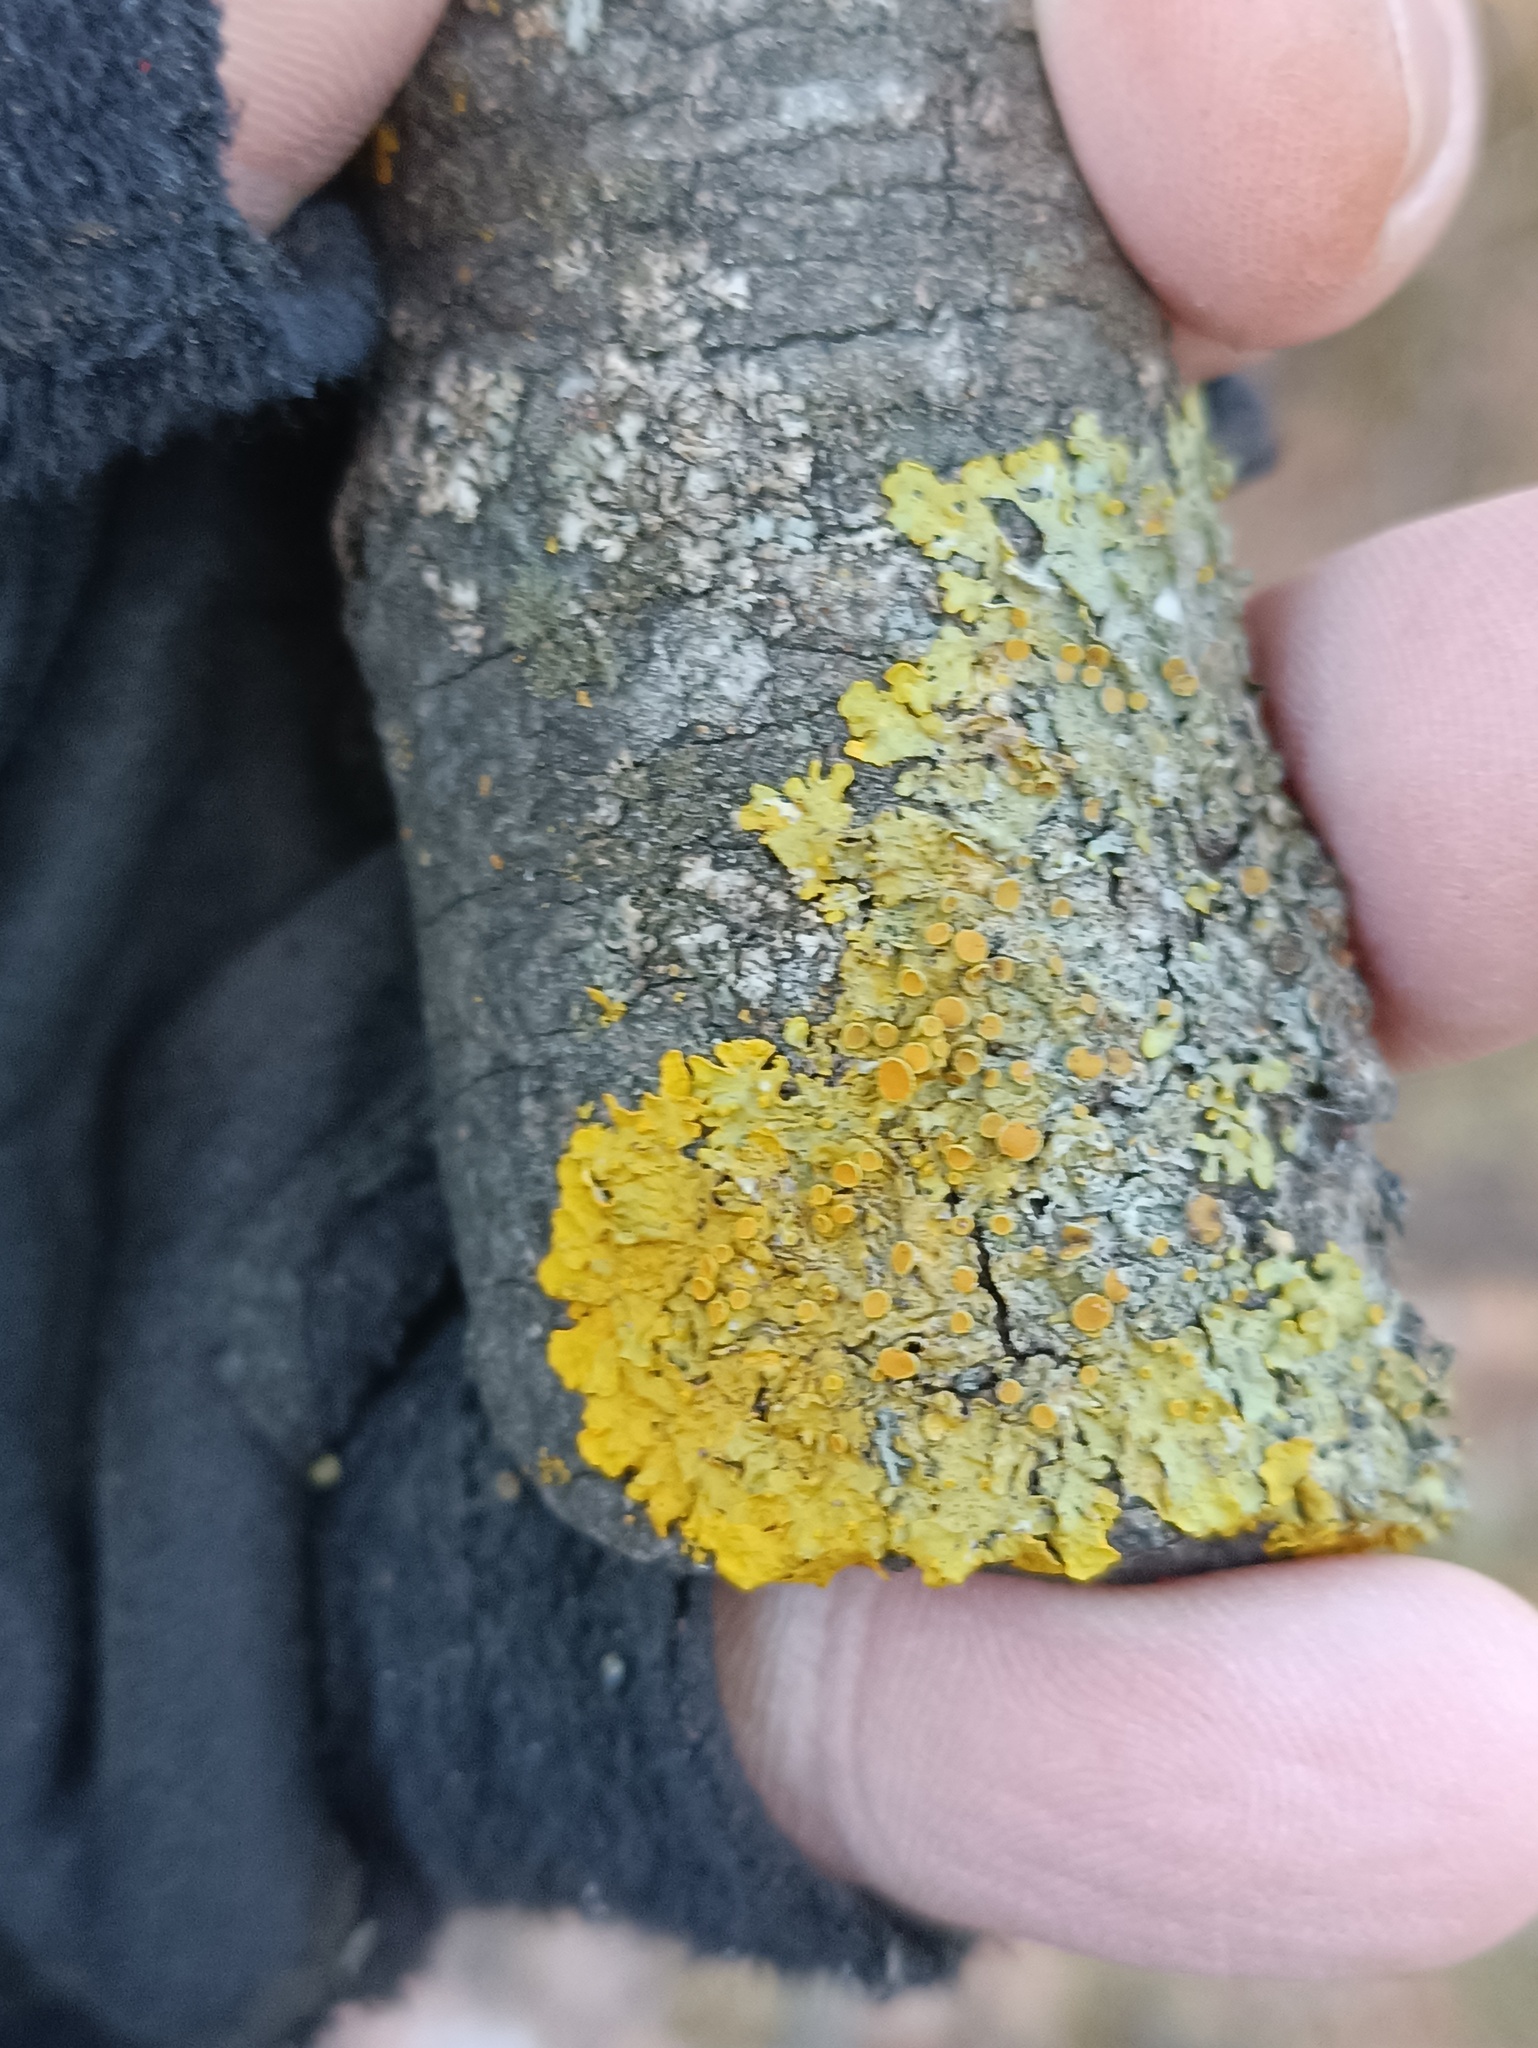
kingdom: Fungi
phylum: Ascomycota
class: Lecanoromycetes
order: Teloschistales
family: Teloschistaceae
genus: Xanthoria
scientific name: Xanthoria parietina
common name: Common orange lichen
